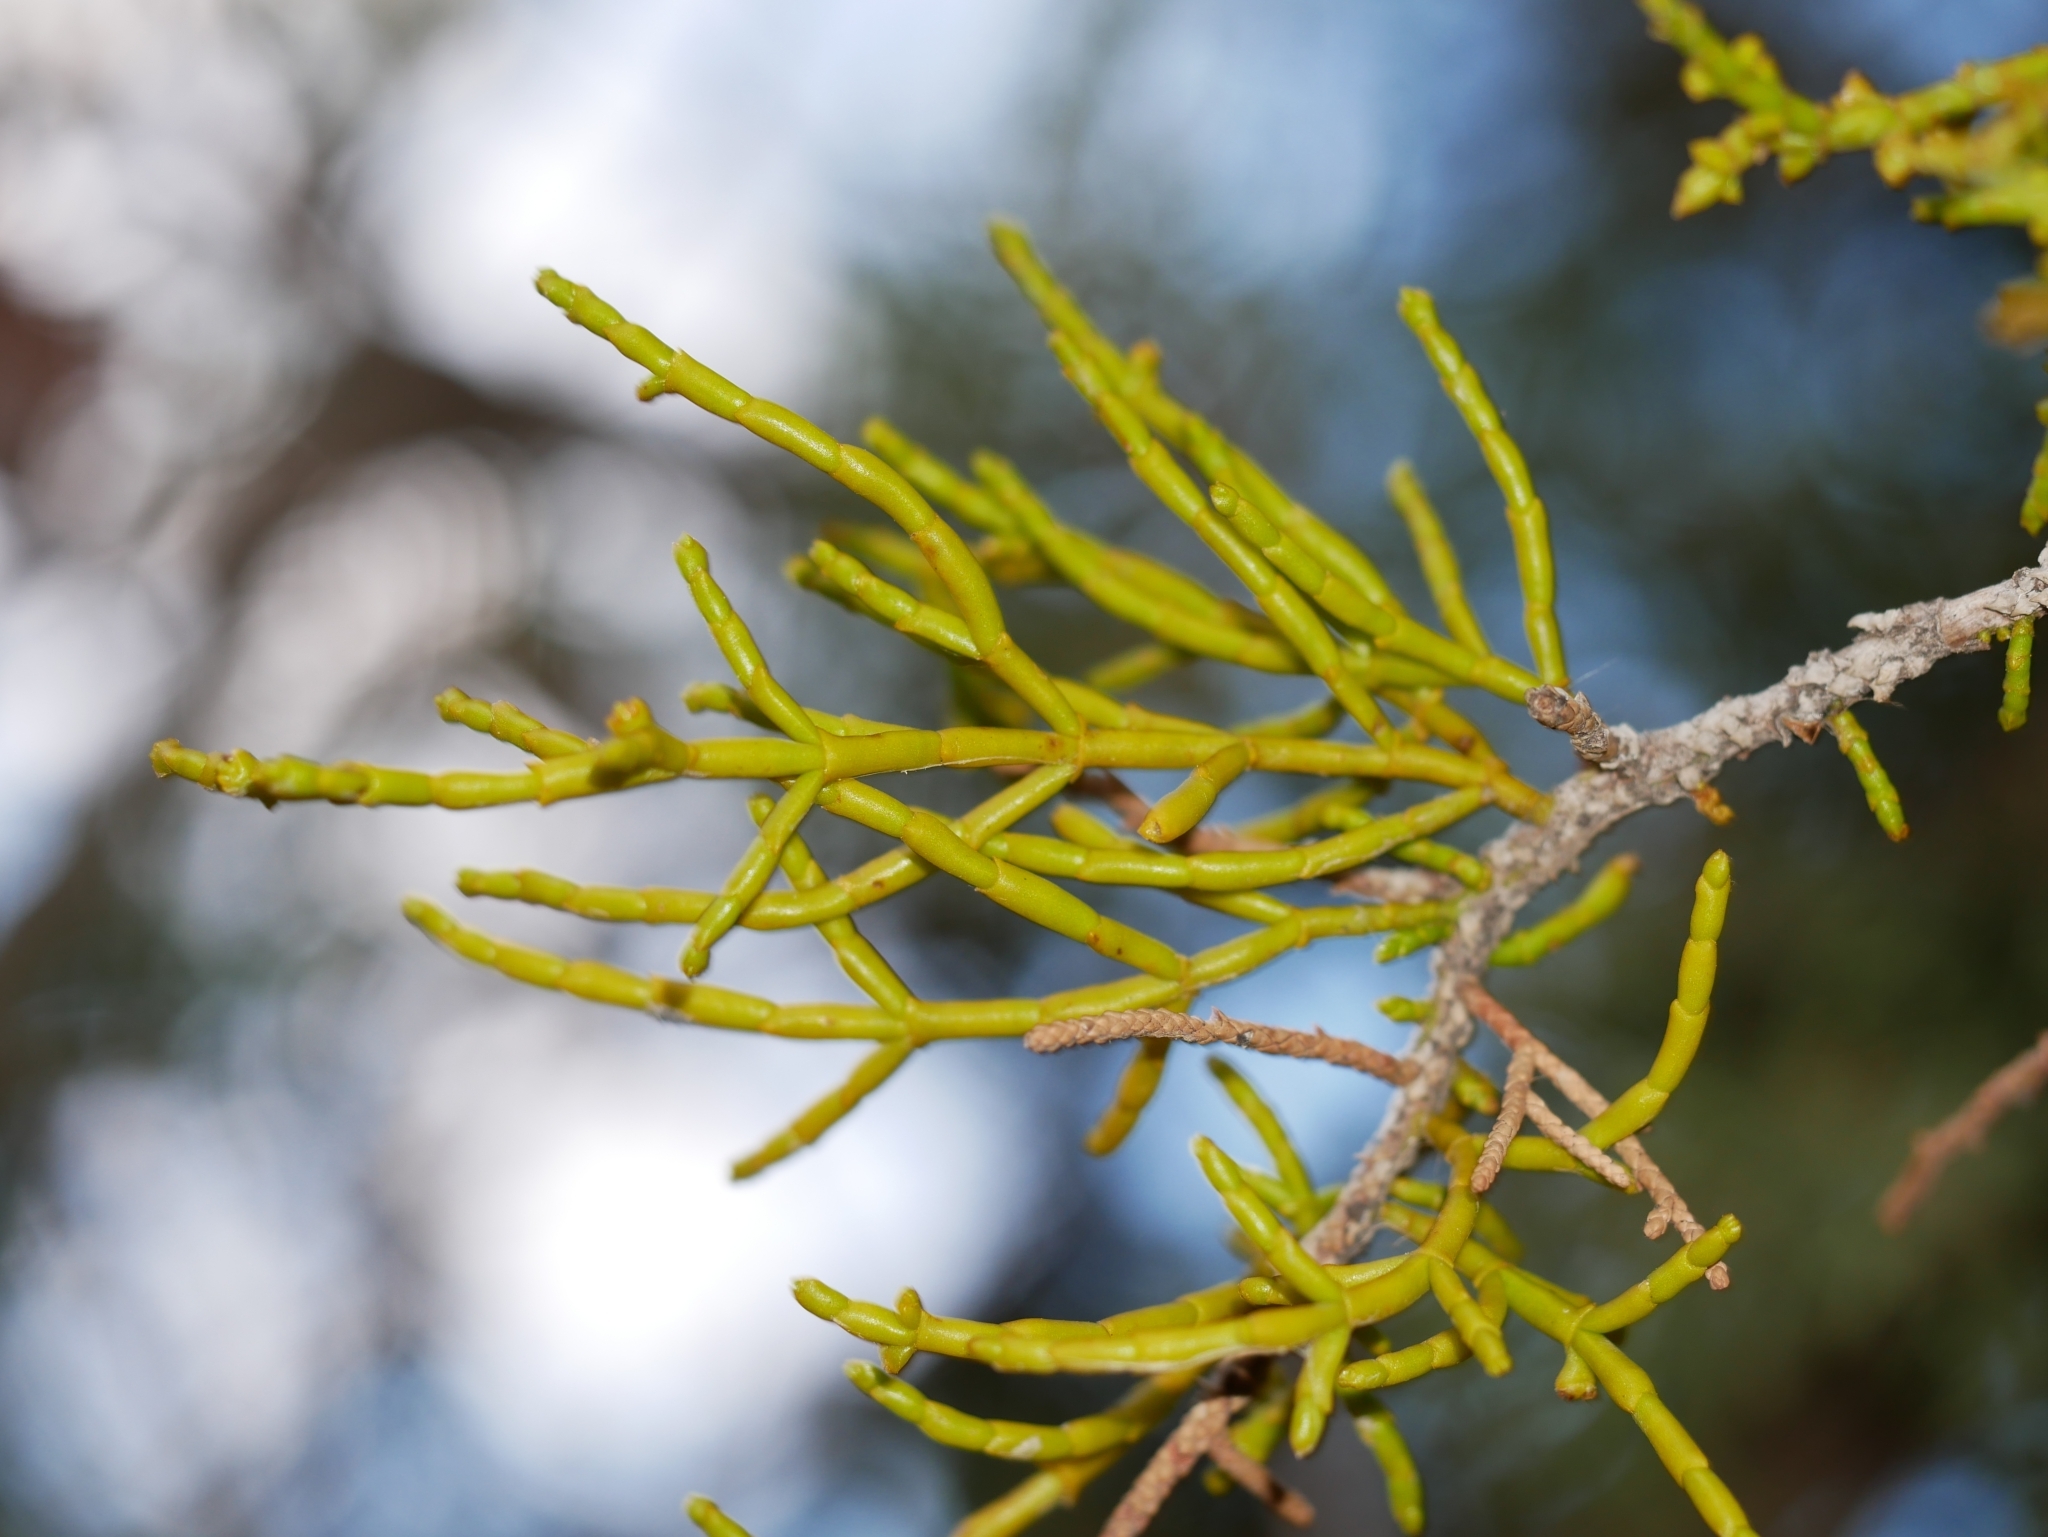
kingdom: Plantae
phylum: Tracheophyta
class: Magnoliopsida
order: Santalales
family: Viscaceae
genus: Phoradendron
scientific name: Phoradendron juniperinum
